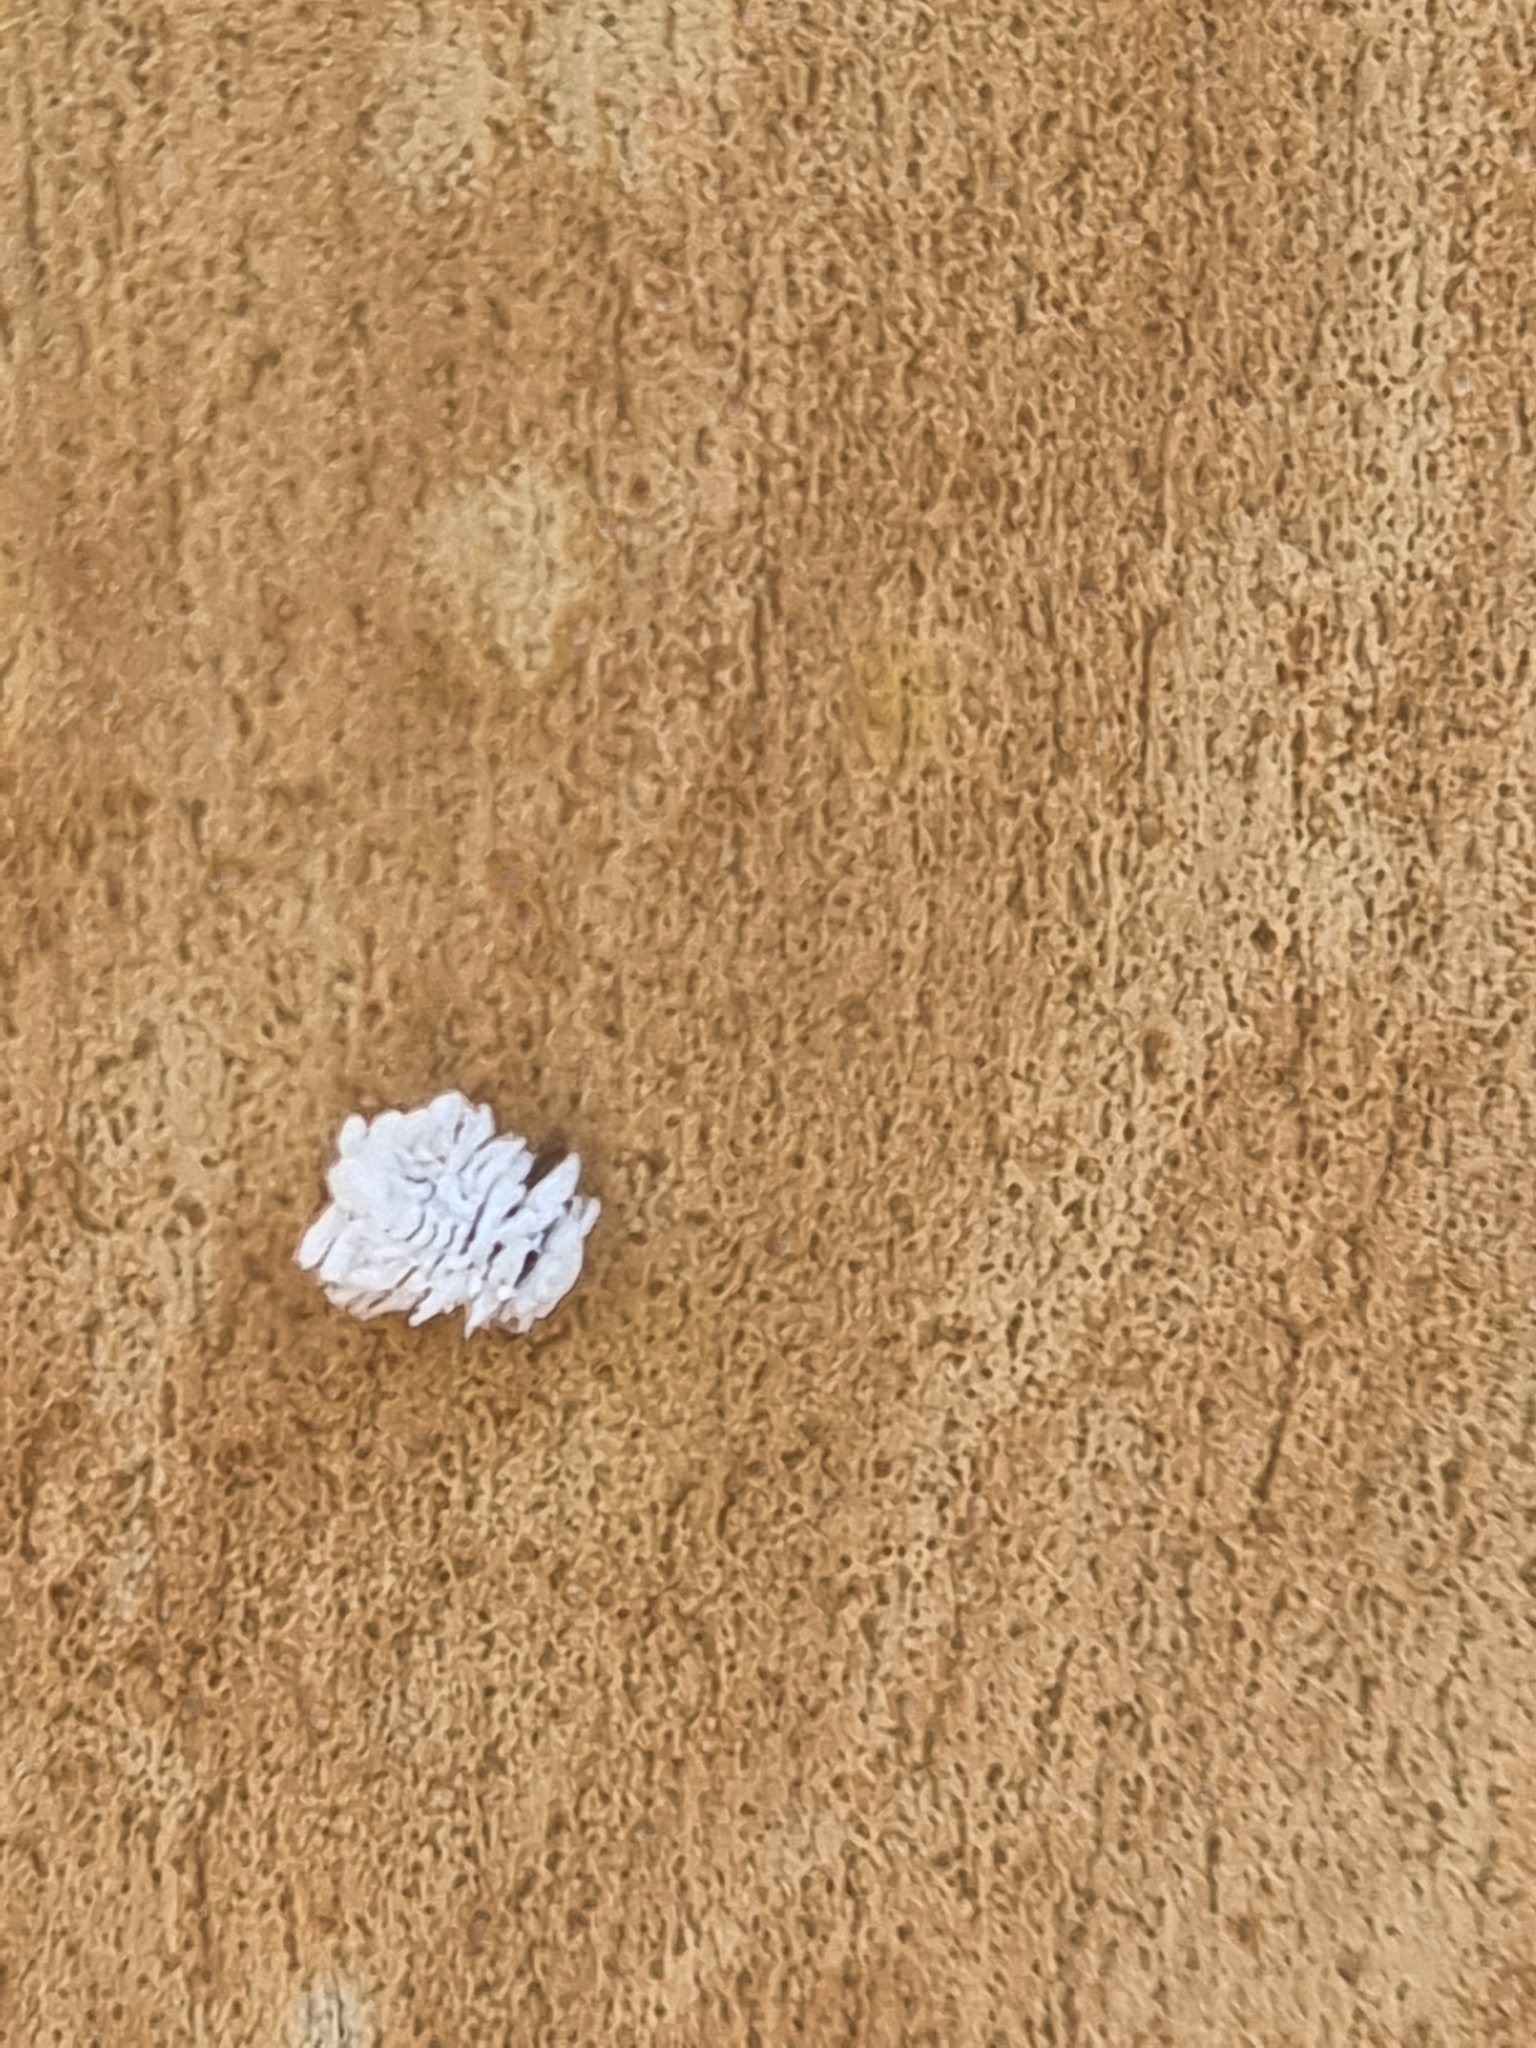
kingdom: Animalia
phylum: Arthropoda
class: Insecta
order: Coleoptera
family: Coccinellidae
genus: Cryptolaemus
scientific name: Cryptolaemus montrouzieri
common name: Mealybug destroyer
